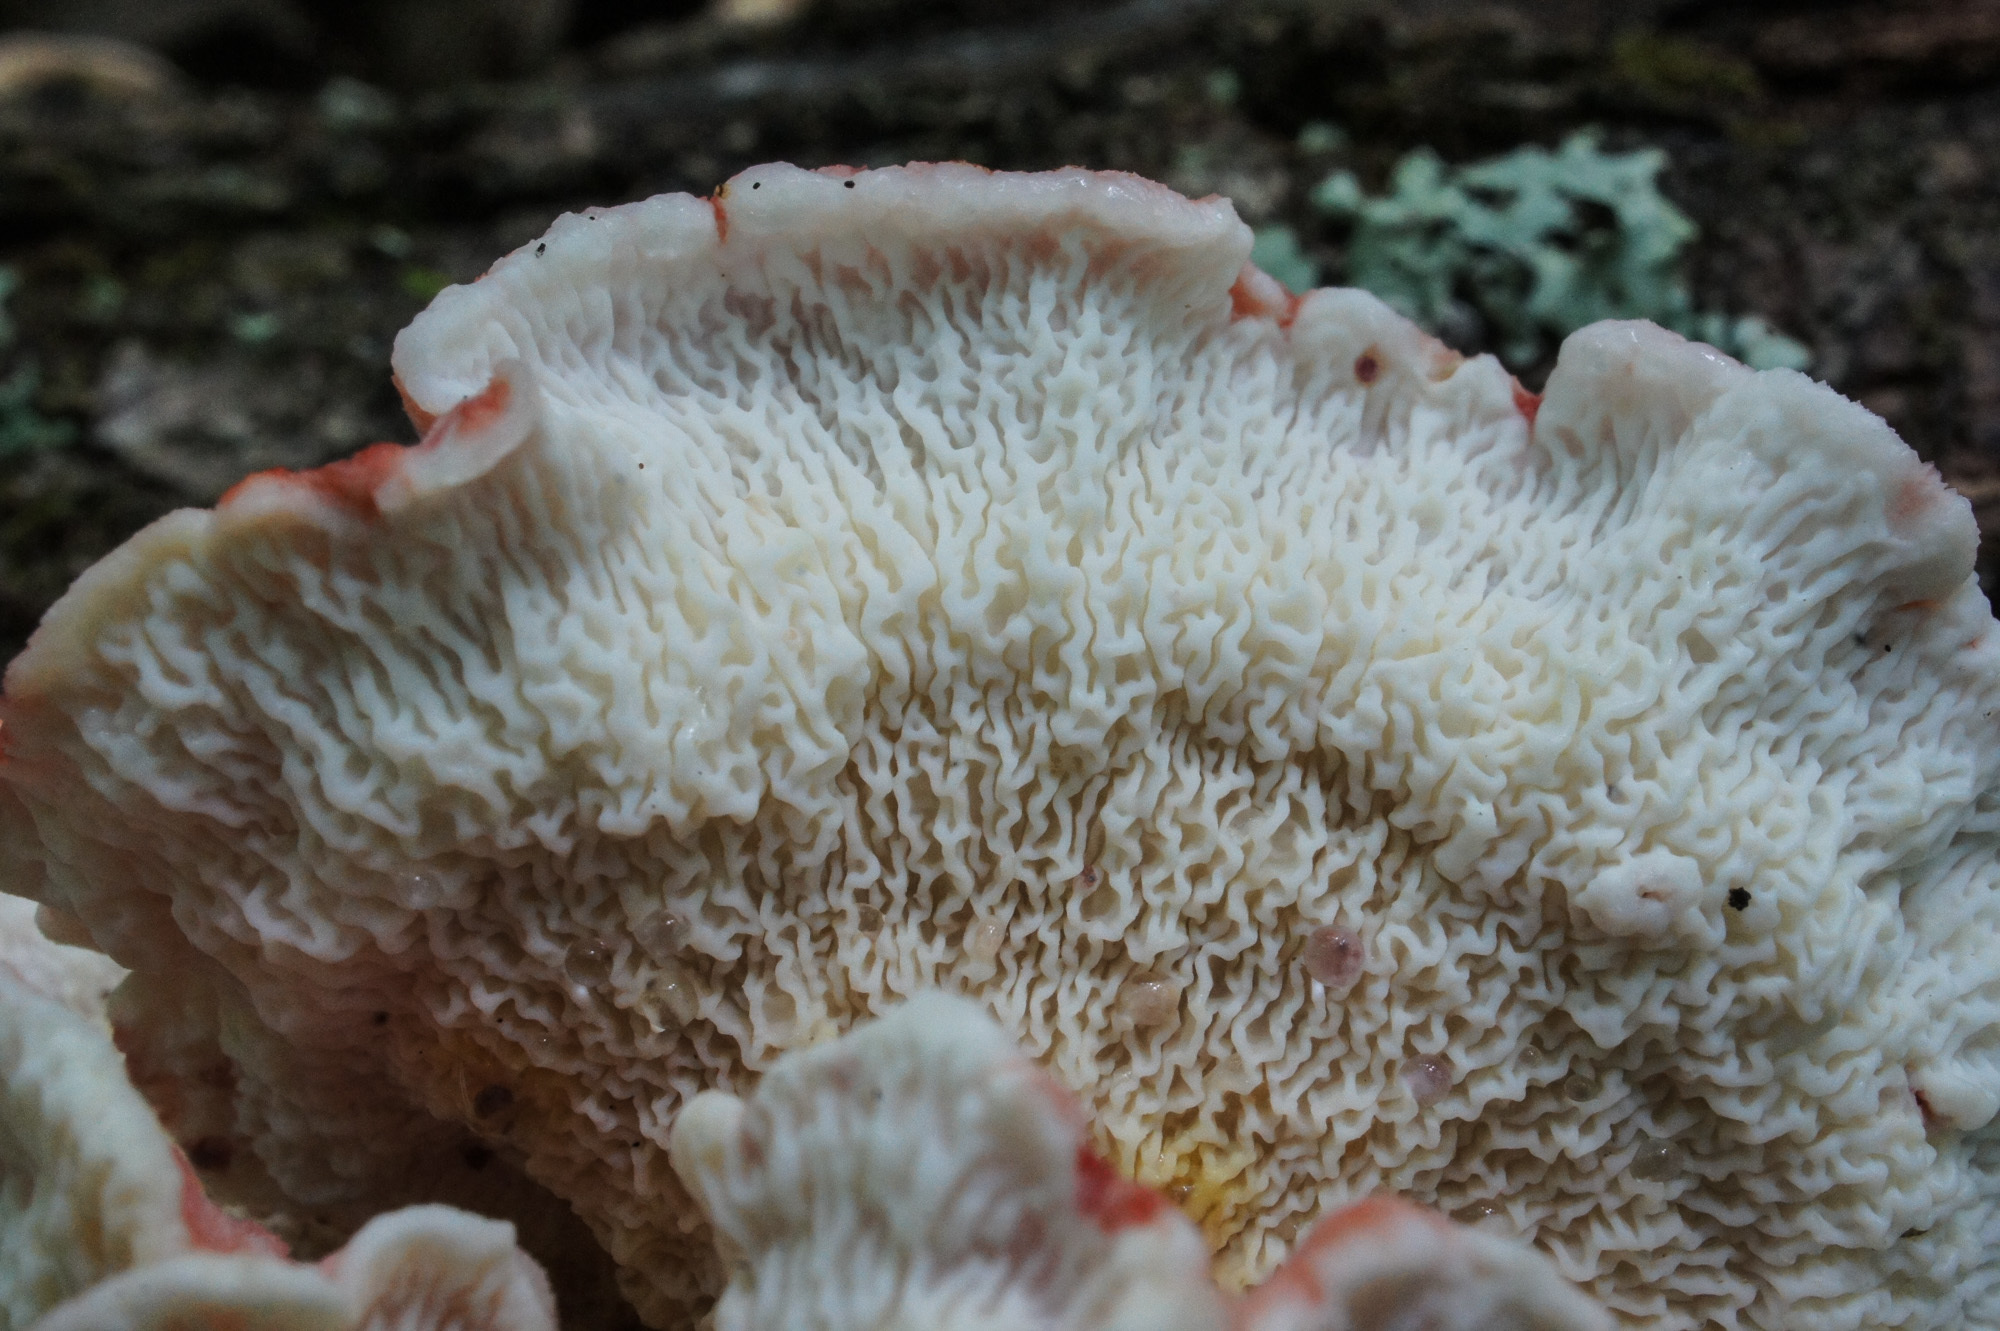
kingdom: Fungi
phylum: Basidiomycota
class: Agaricomycetes
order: Polyporales
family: Irpicaceae
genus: Byssomerulius
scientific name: Byssomerulius incarnatus
